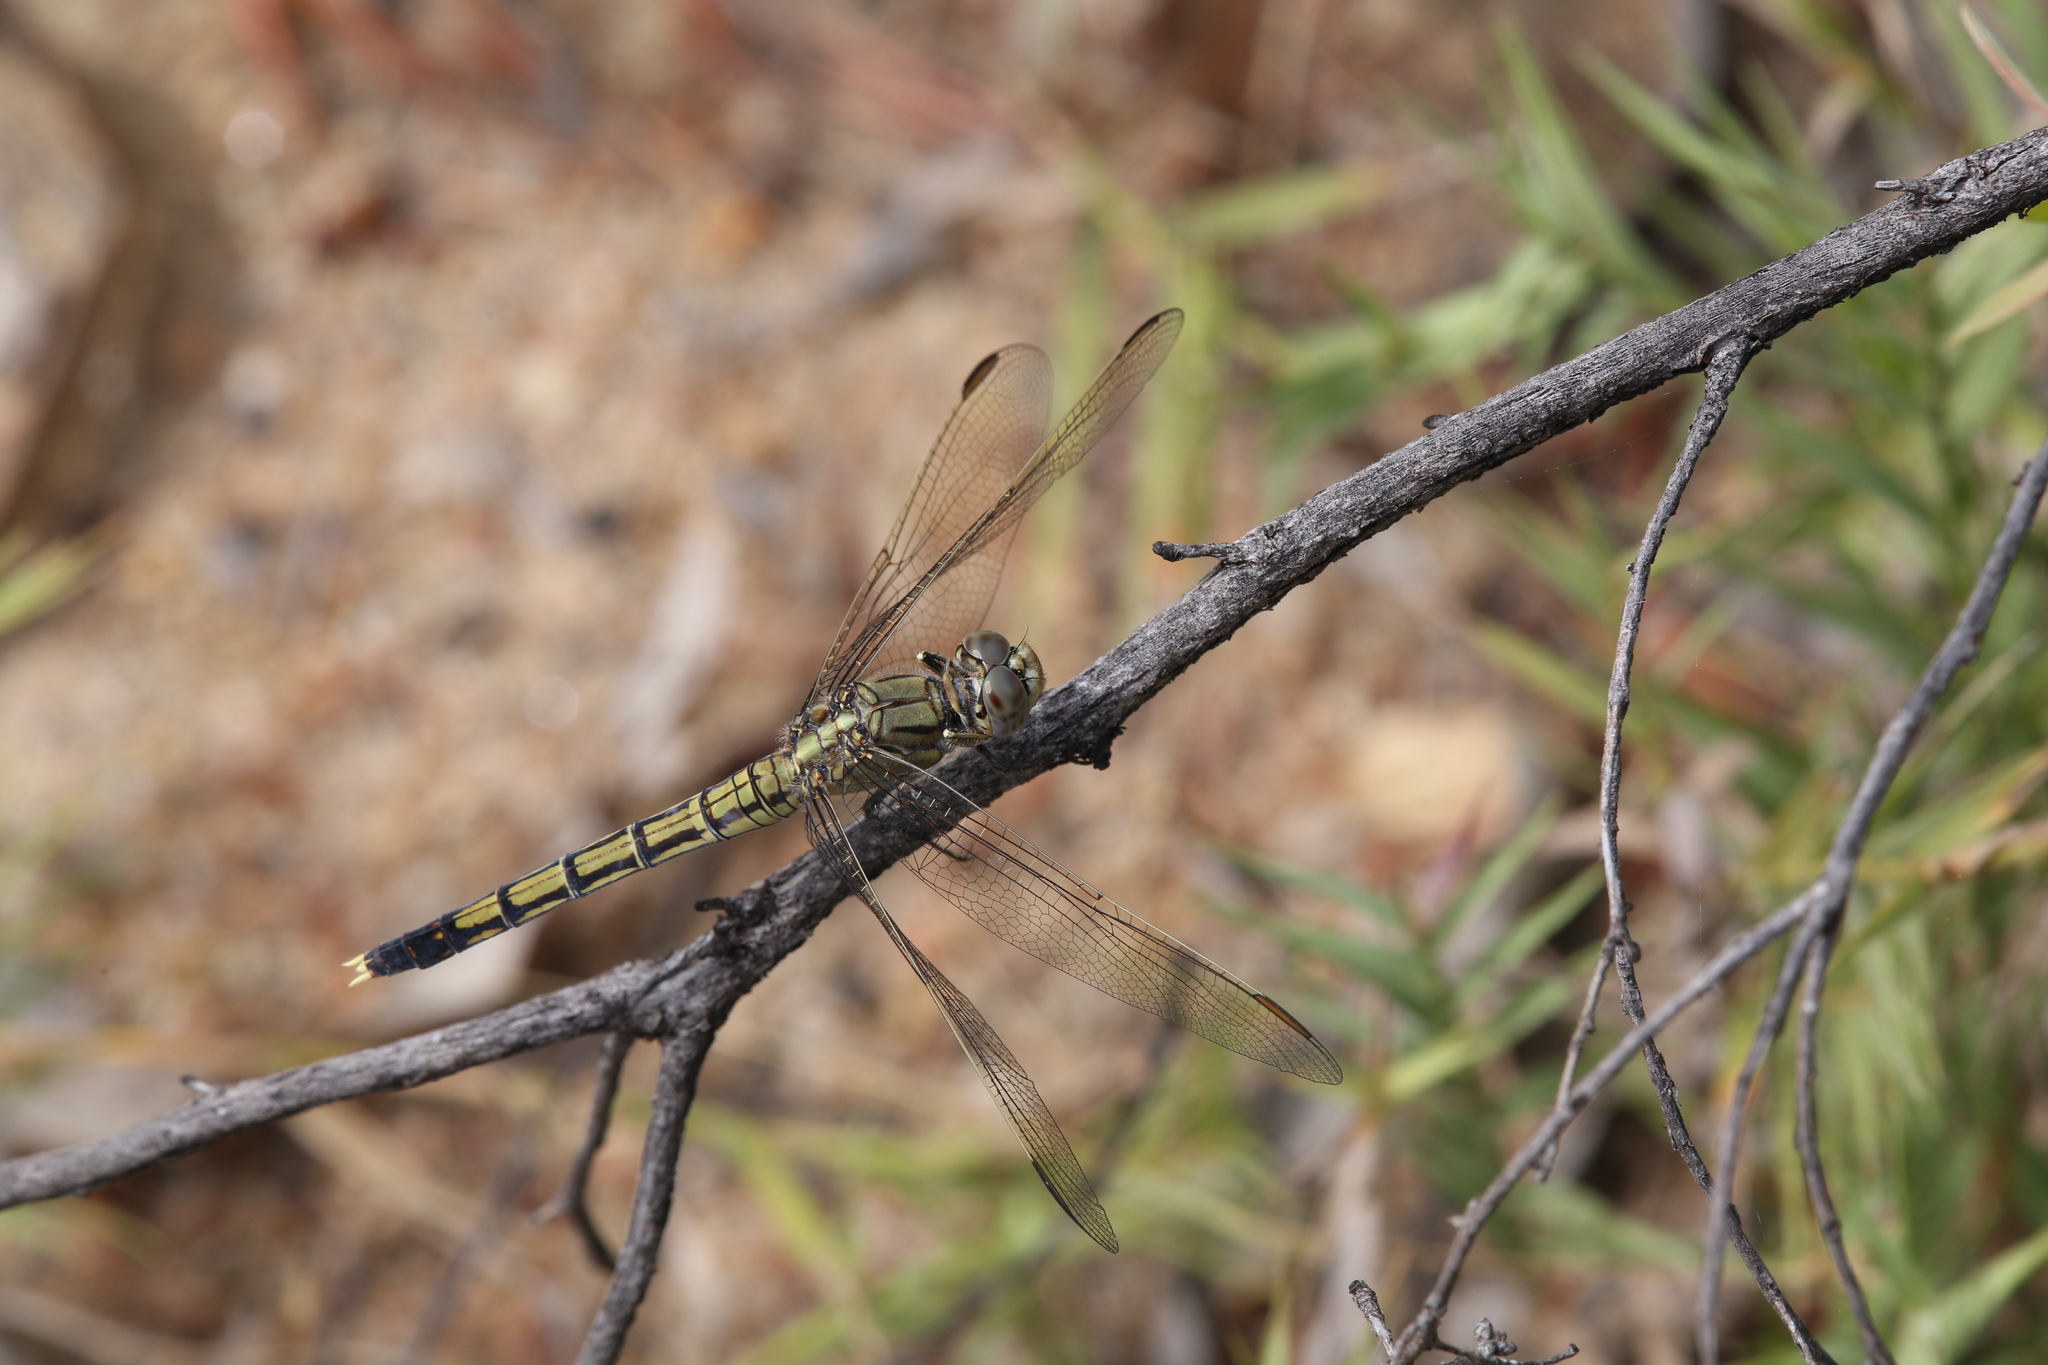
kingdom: Animalia
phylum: Arthropoda
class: Insecta
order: Odonata
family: Libellulidae
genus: Orthetrum
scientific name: Orthetrum caledonicum
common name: Blue skimmer
